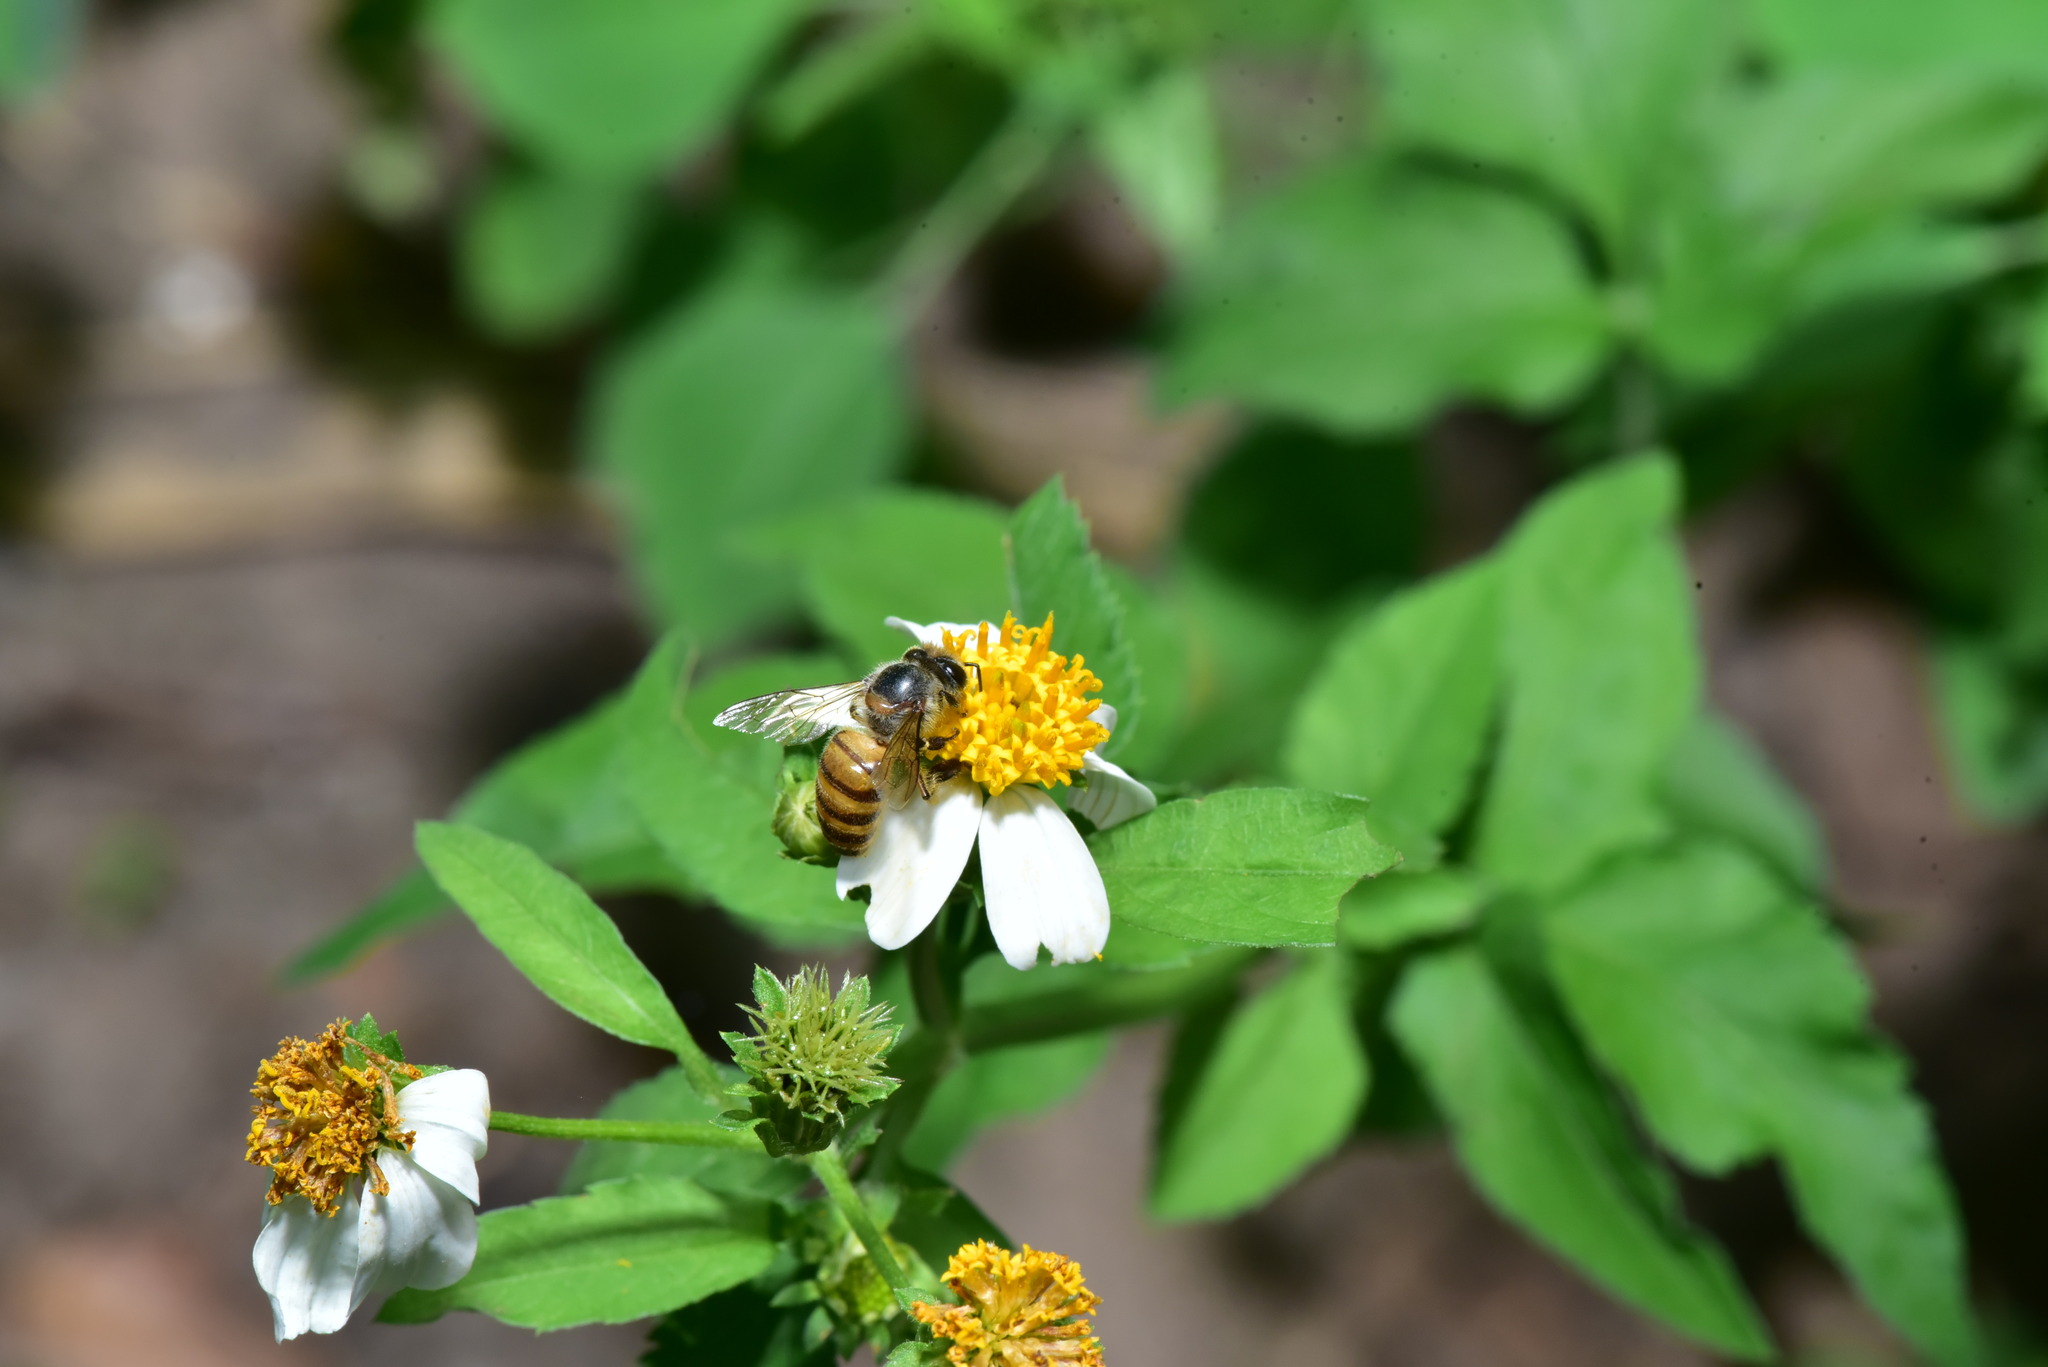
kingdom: Animalia
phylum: Arthropoda
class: Insecta
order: Hymenoptera
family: Apidae
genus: Apis
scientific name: Apis cerana
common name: Honey bee
